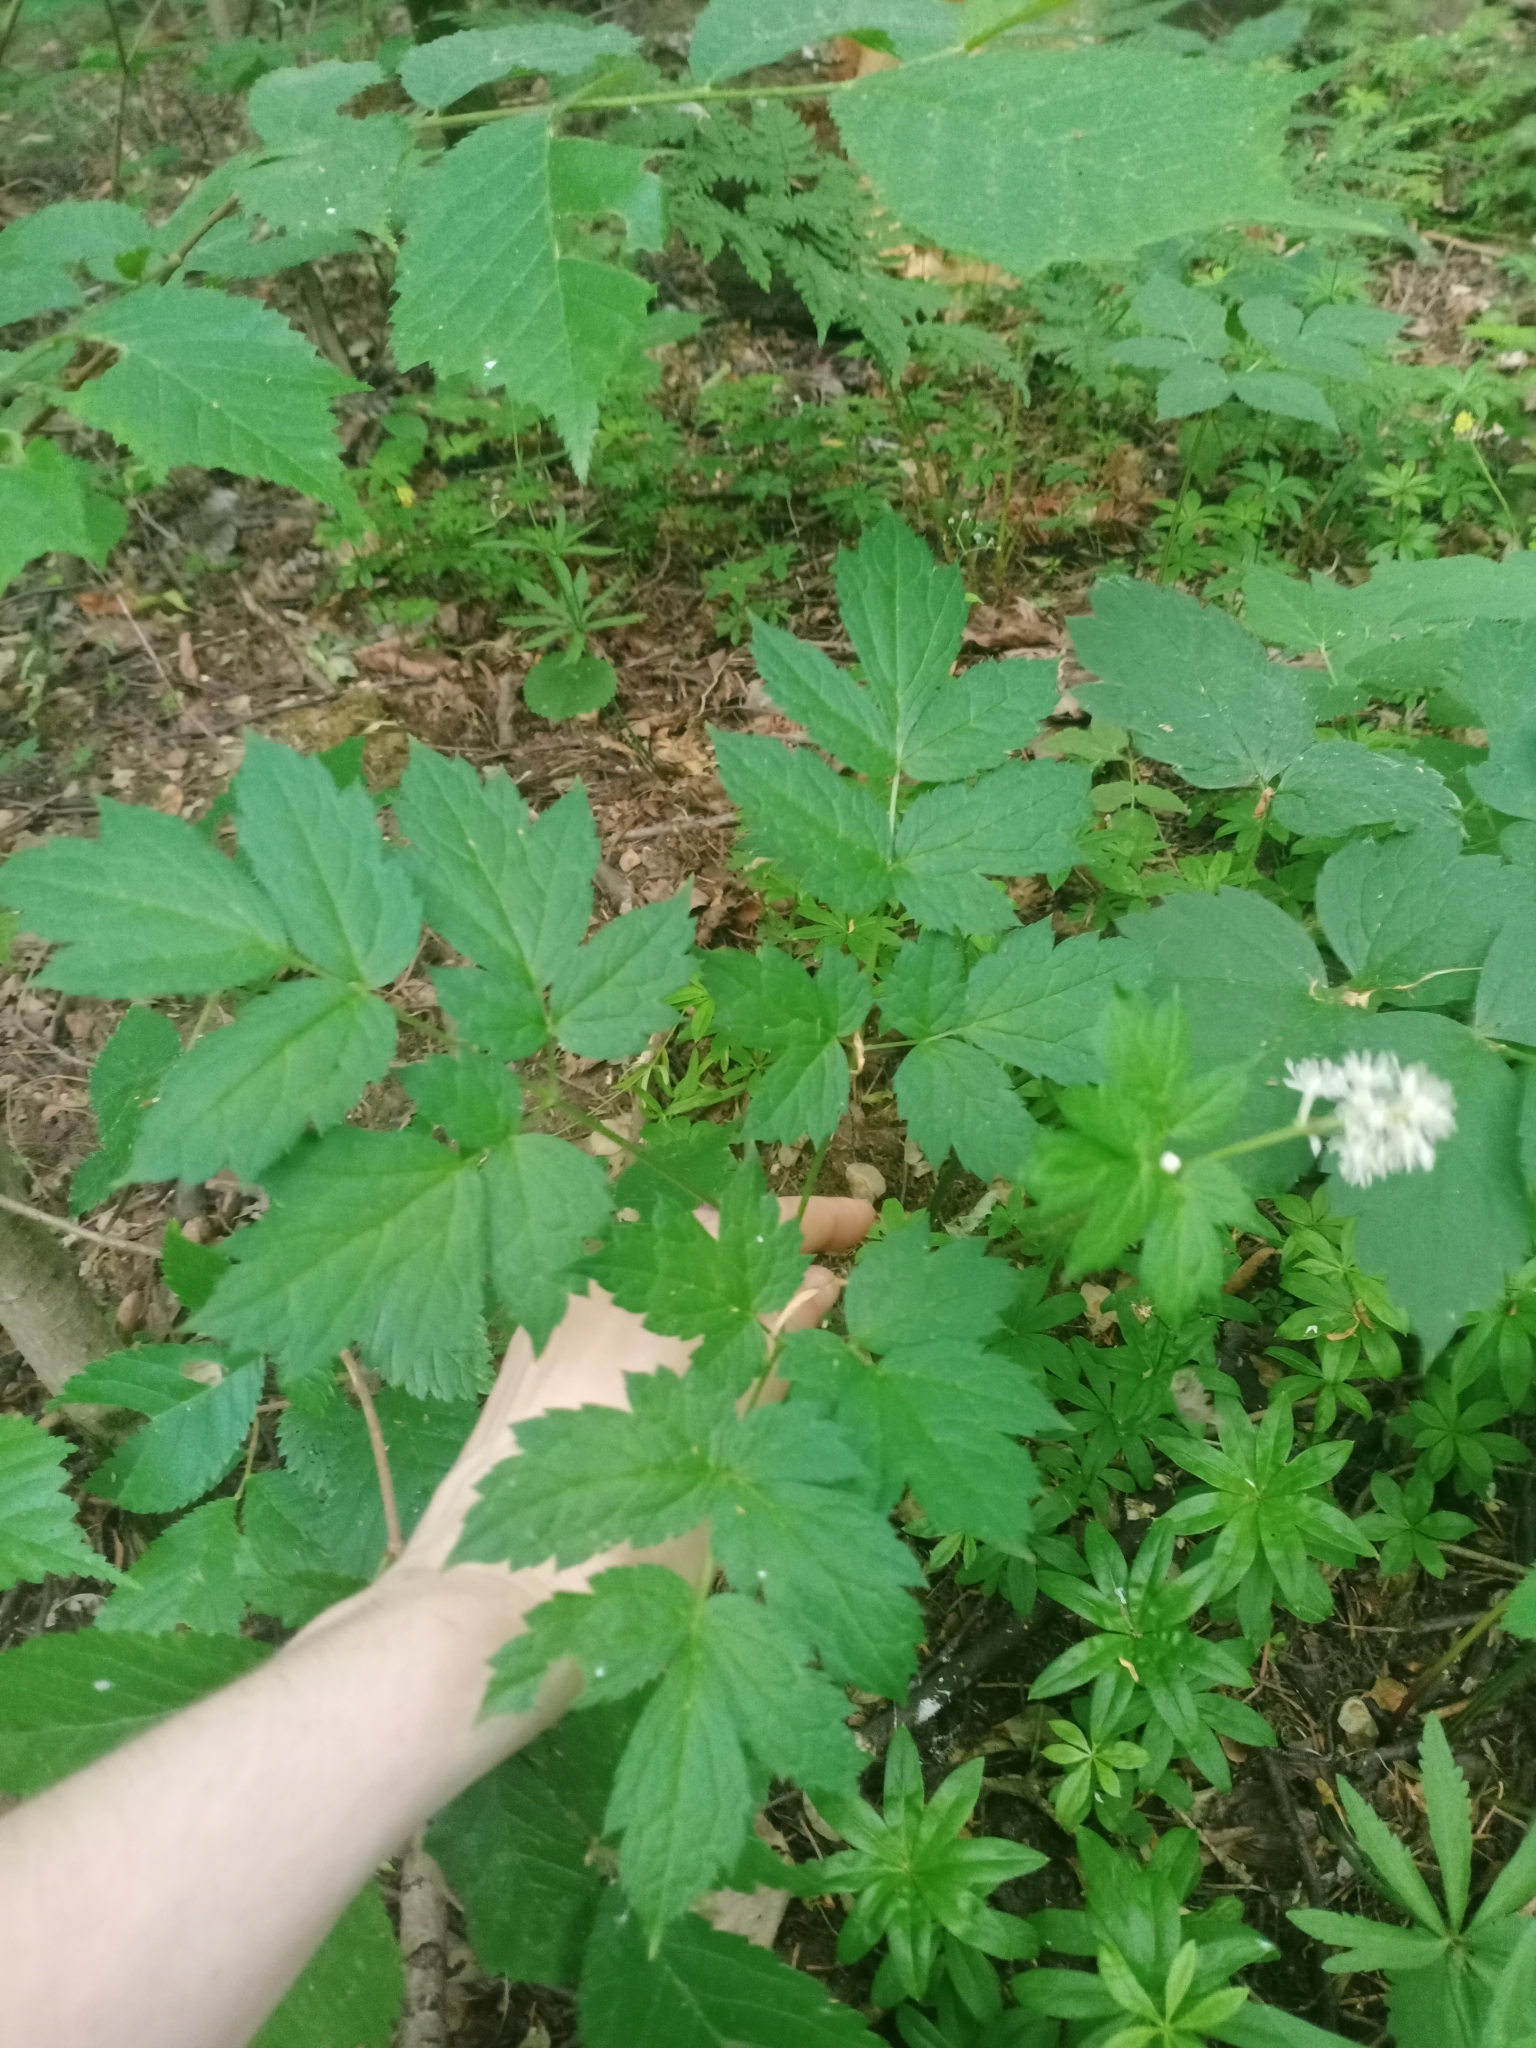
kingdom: Plantae
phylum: Tracheophyta
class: Magnoliopsida
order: Ranunculales
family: Ranunculaceae
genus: Actaea
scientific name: Actaea spicata
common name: Baneberry
